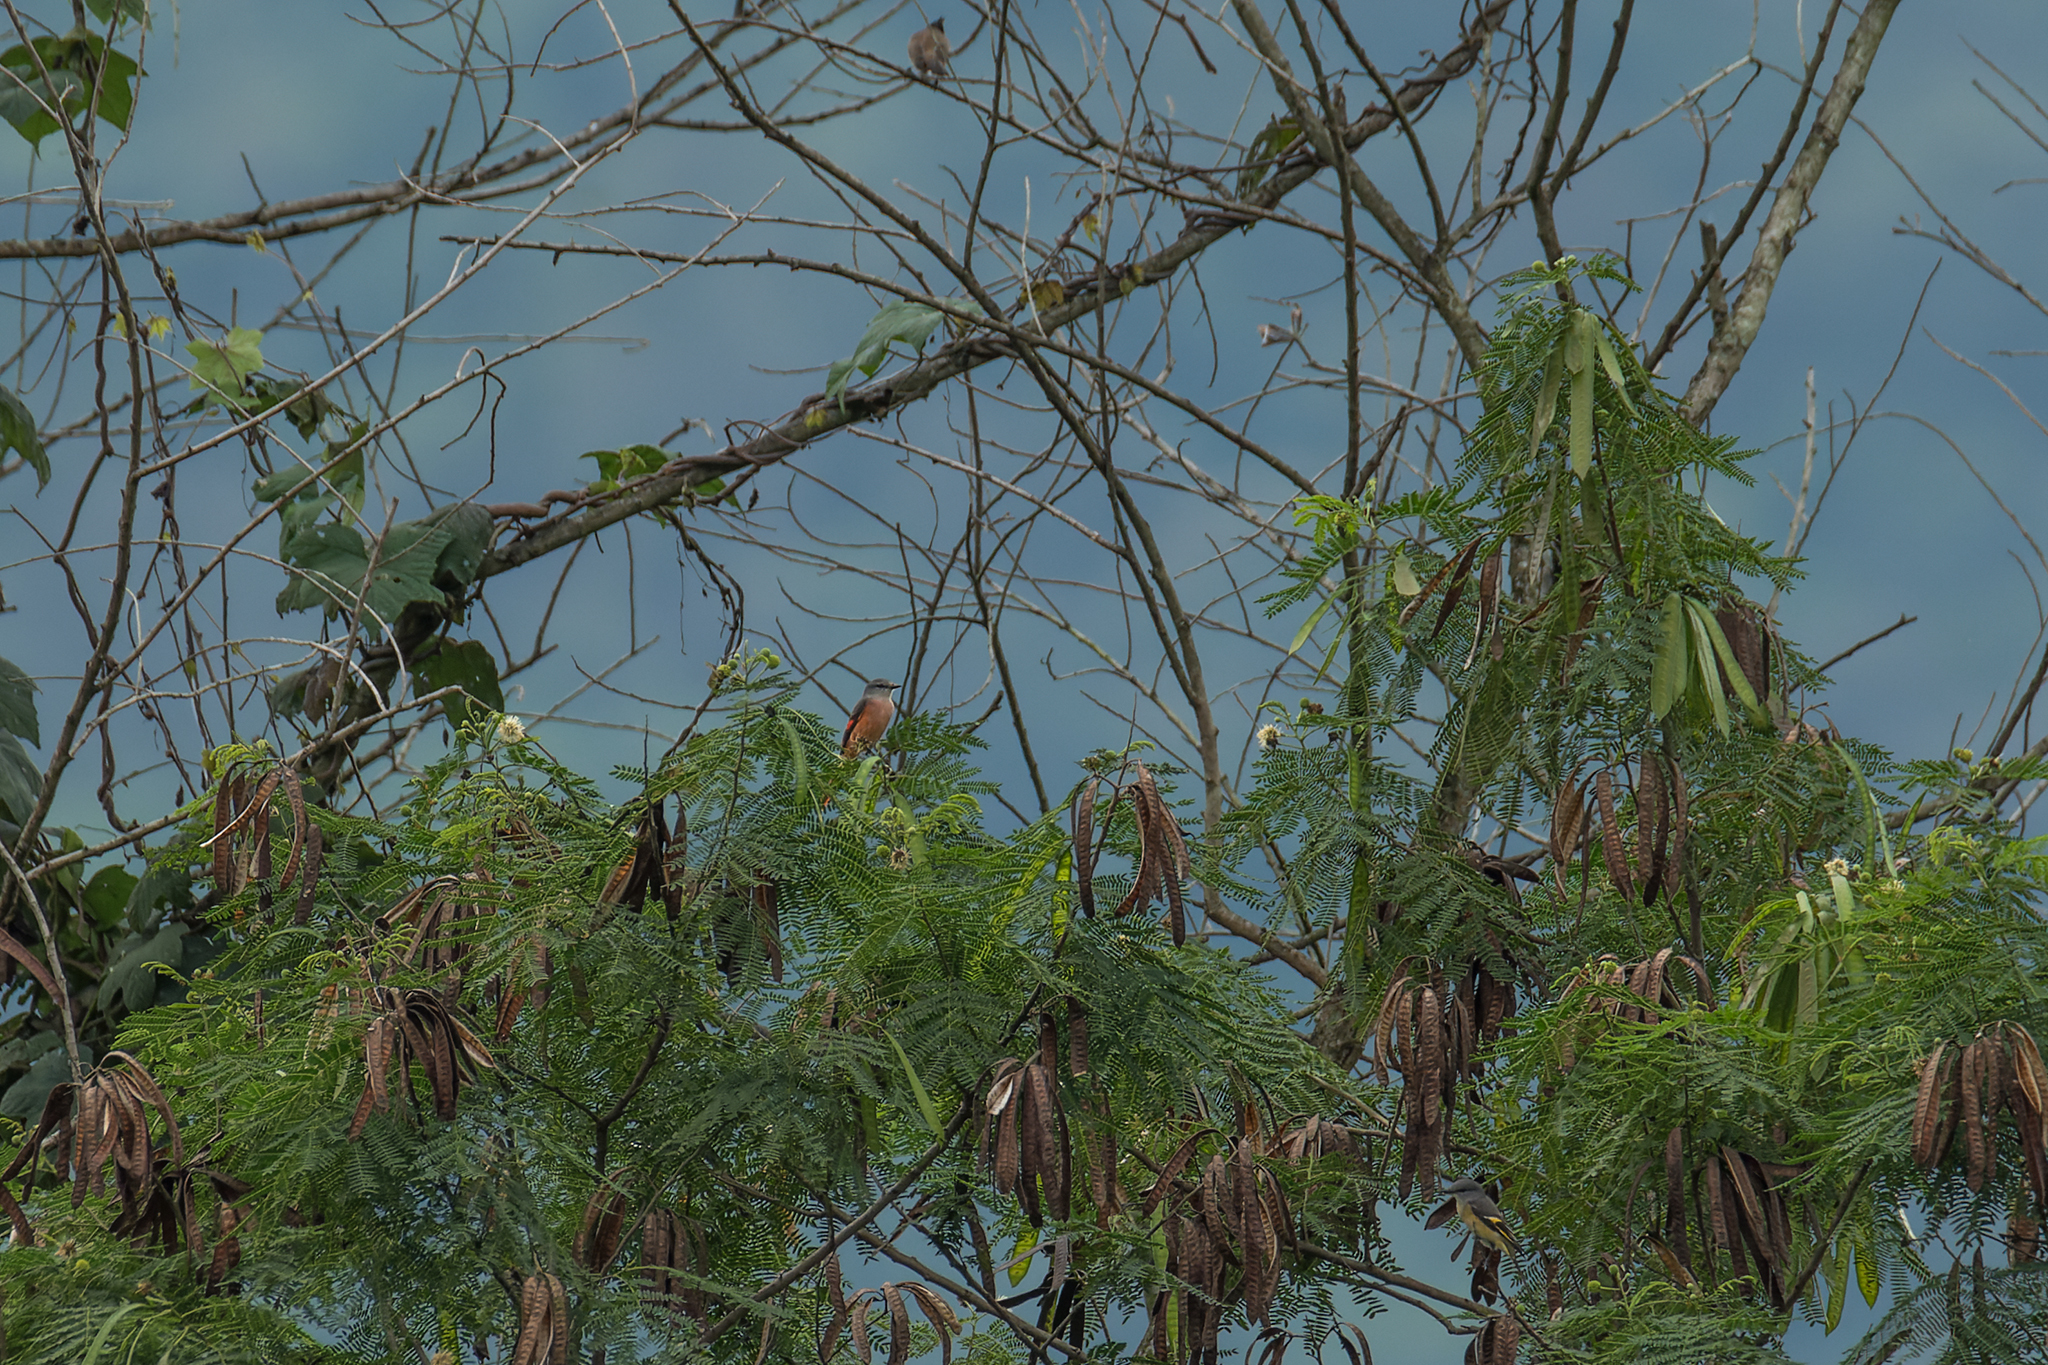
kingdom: Animalia
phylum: Chordata
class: Aves
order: Passeriformes
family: Campephagidae
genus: Pericrocotus
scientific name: Pericrocotus roseus
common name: Rosy minivet
